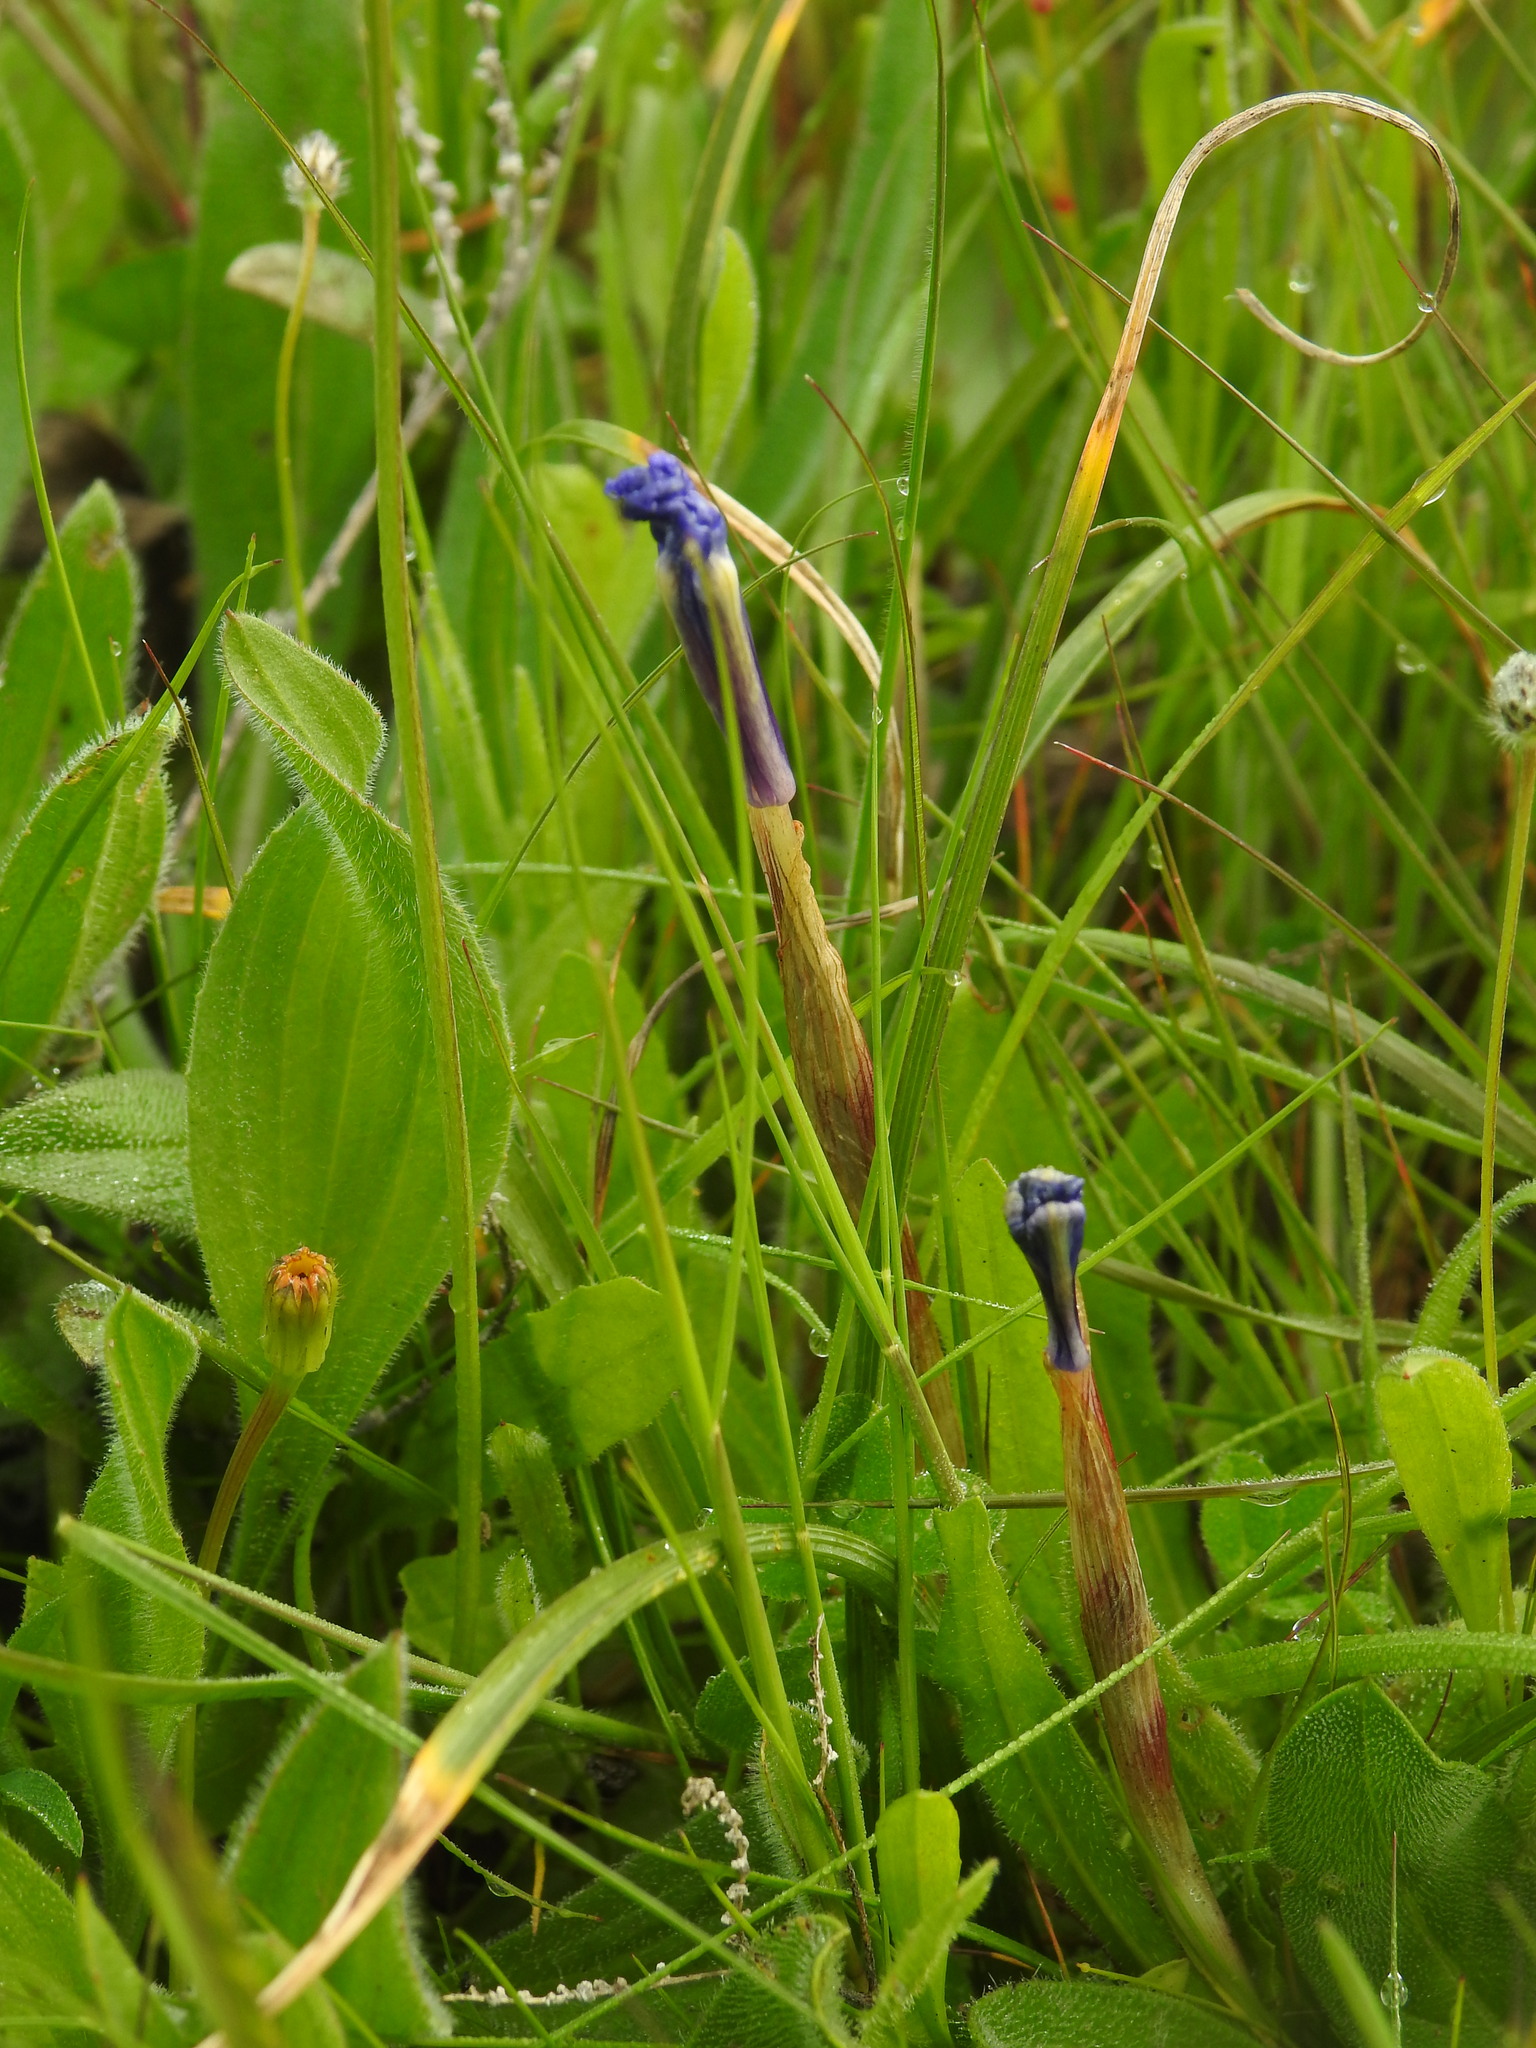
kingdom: Plantae
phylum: Tracheophyta
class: Liliopsida
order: Asparagales
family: Iridaceae
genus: Moraea
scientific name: Moraea sisyrinchium
